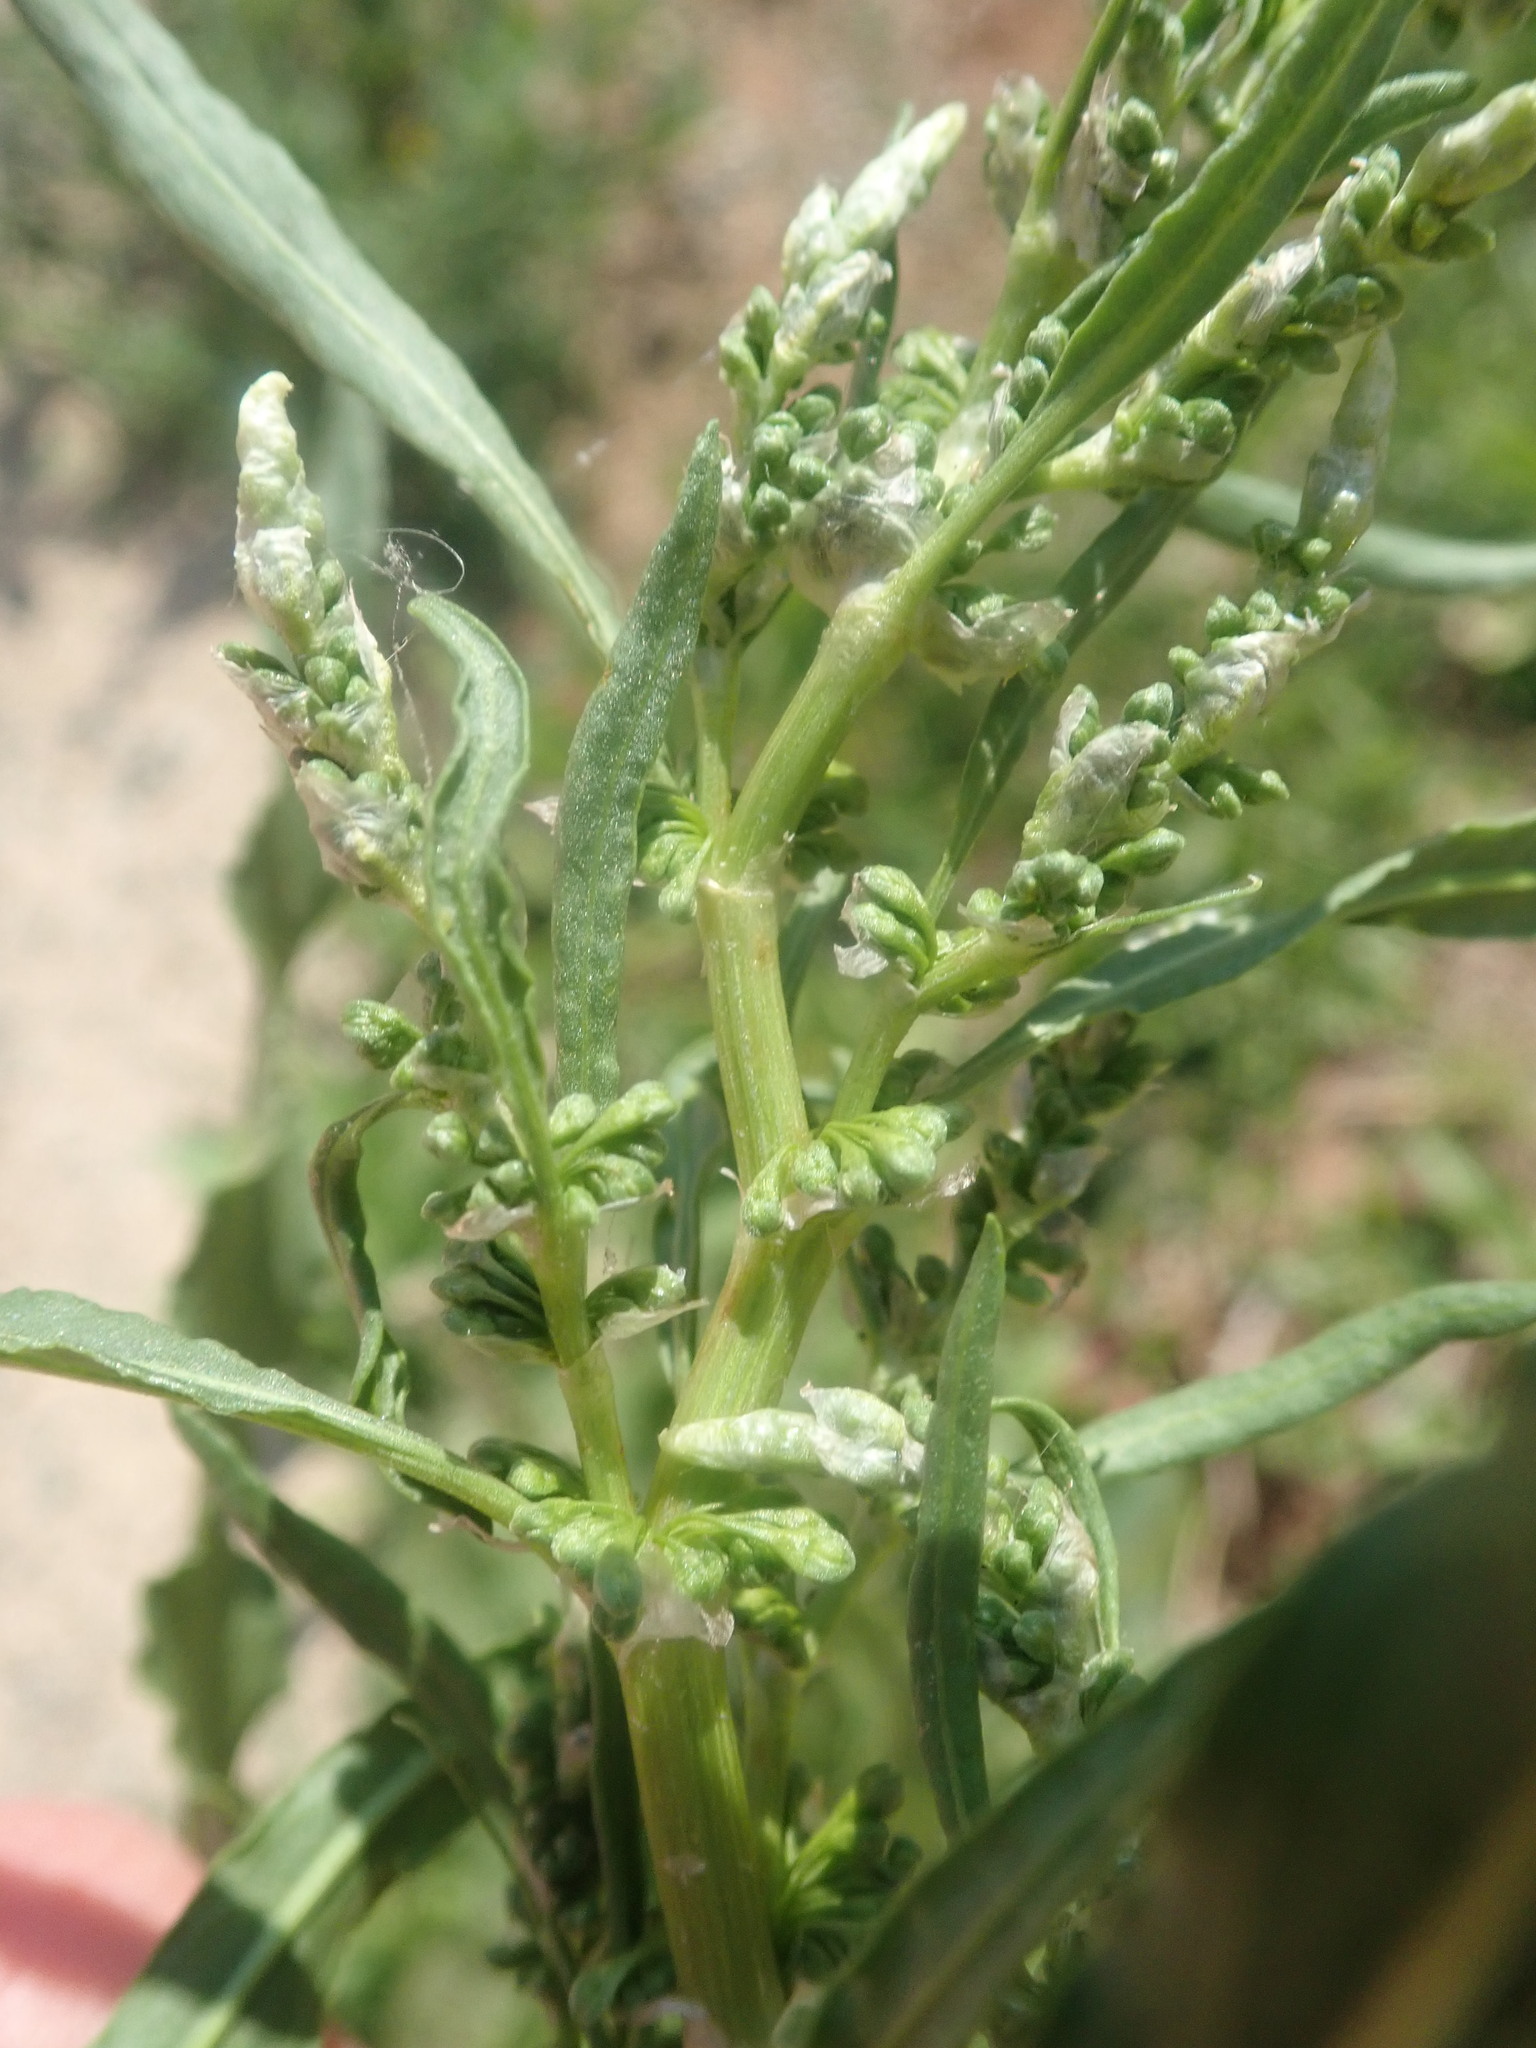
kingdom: Plantae
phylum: Tracheophyta
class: Magnoliopsida
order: Caryophyllales
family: Polygonaceae
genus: Rumex
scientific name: Rumex crispus
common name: Curled dock
